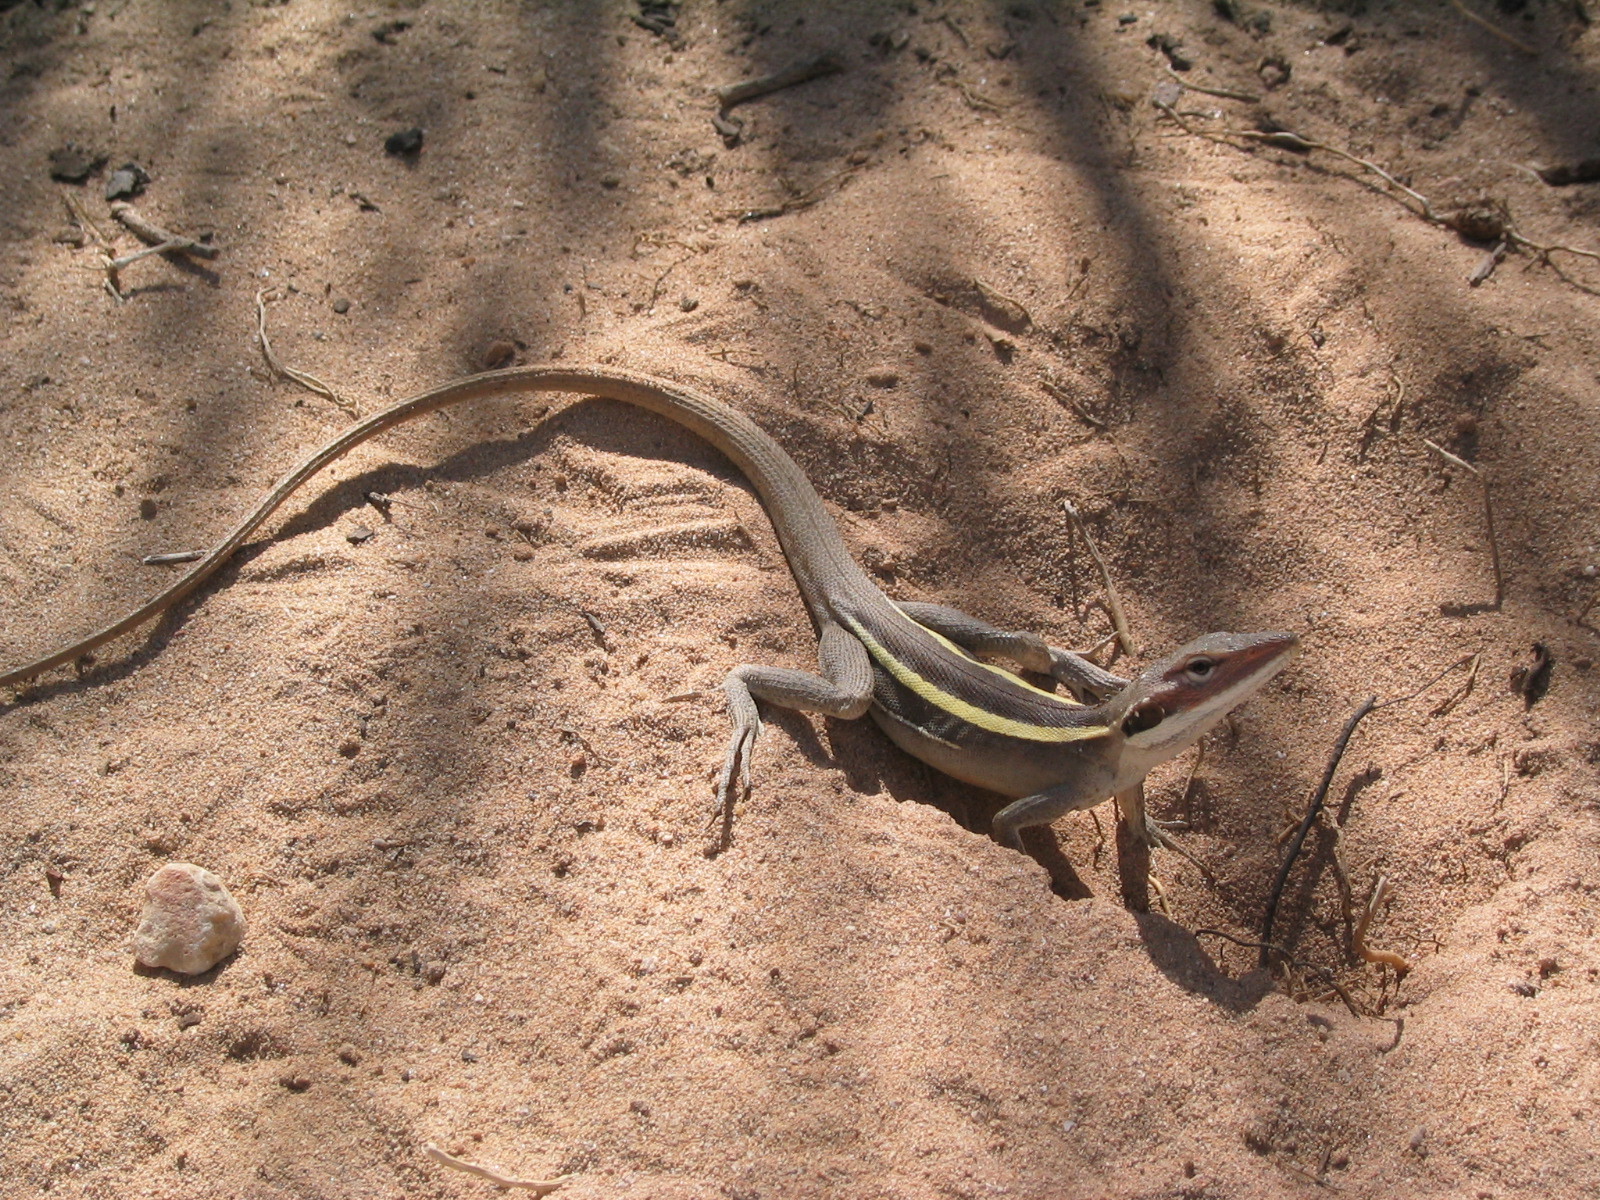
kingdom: Animalia
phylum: Chordata
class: Squamata
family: Agamidae
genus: Gowidon
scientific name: Gowidon longirostris
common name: Long-nosed water dragon
